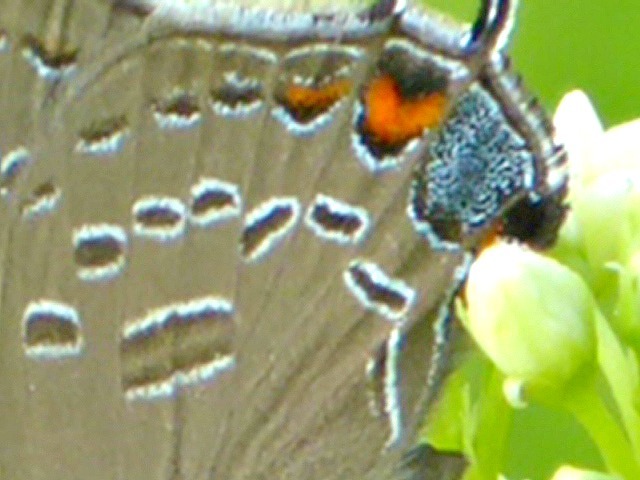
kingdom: Animalia
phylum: Arthropoda
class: Insecta
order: Lepidoptera
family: Lycaenidae
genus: Satyrium
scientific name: Satyrium edwardsii
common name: Edwards' hairstreak
